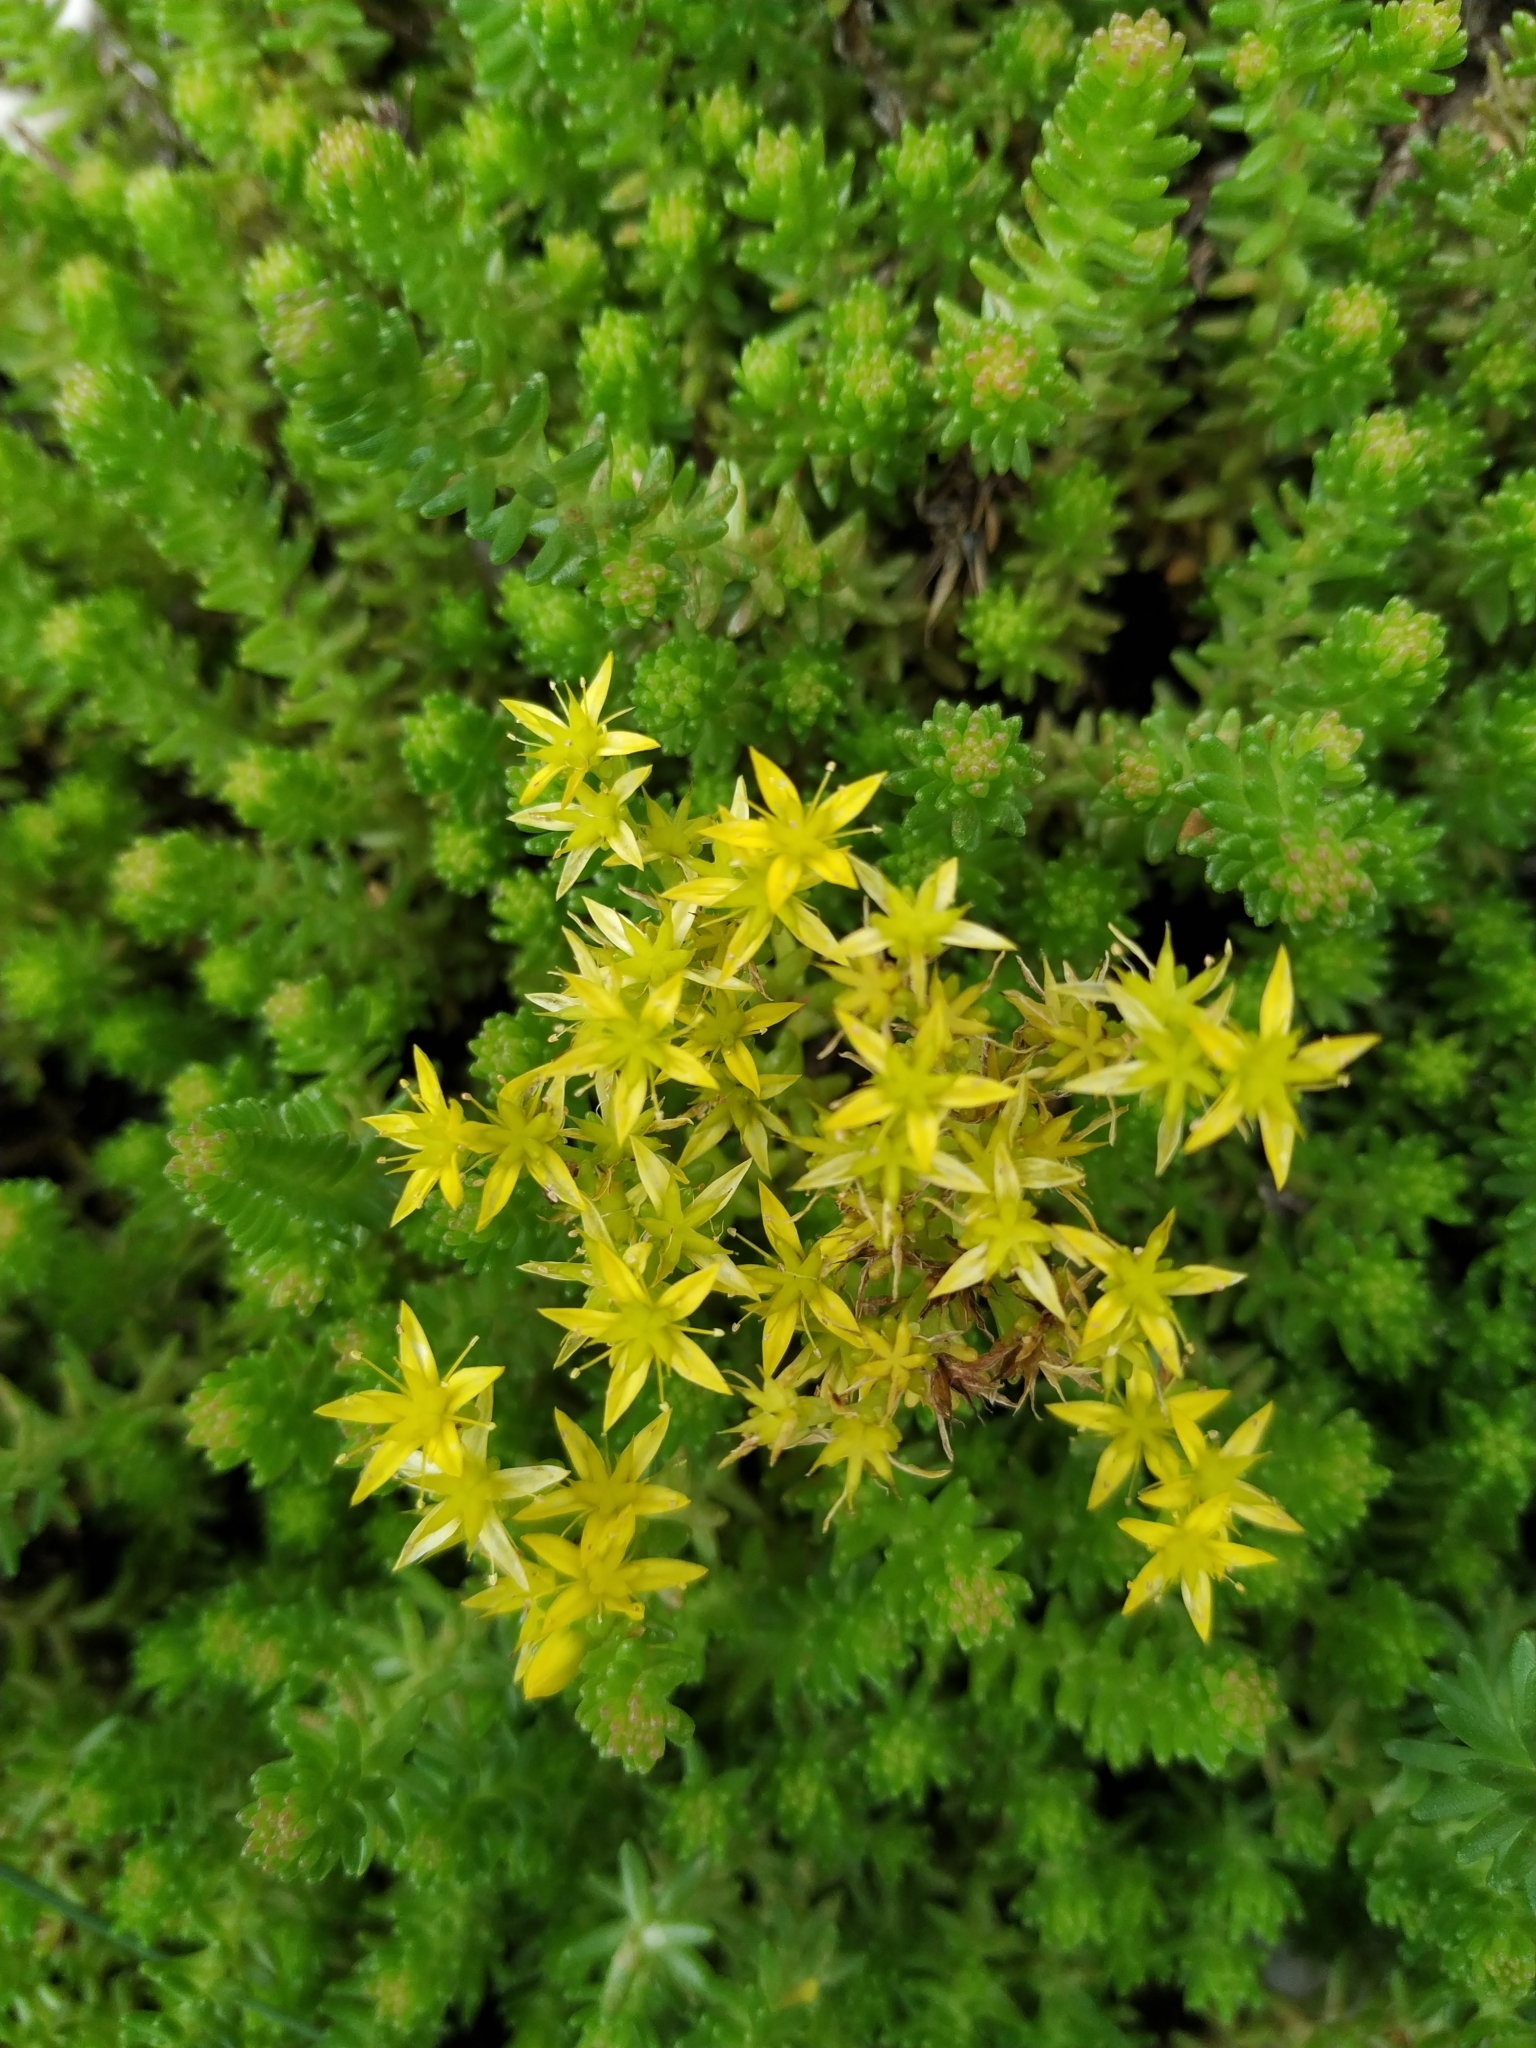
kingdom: Plantae
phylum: Tracheophyta
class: Magnoliopsida
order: Saxifragales
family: Crassulaceae
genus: Sedum
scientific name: Sedum sexangulare
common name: Tasteless stonecrop
